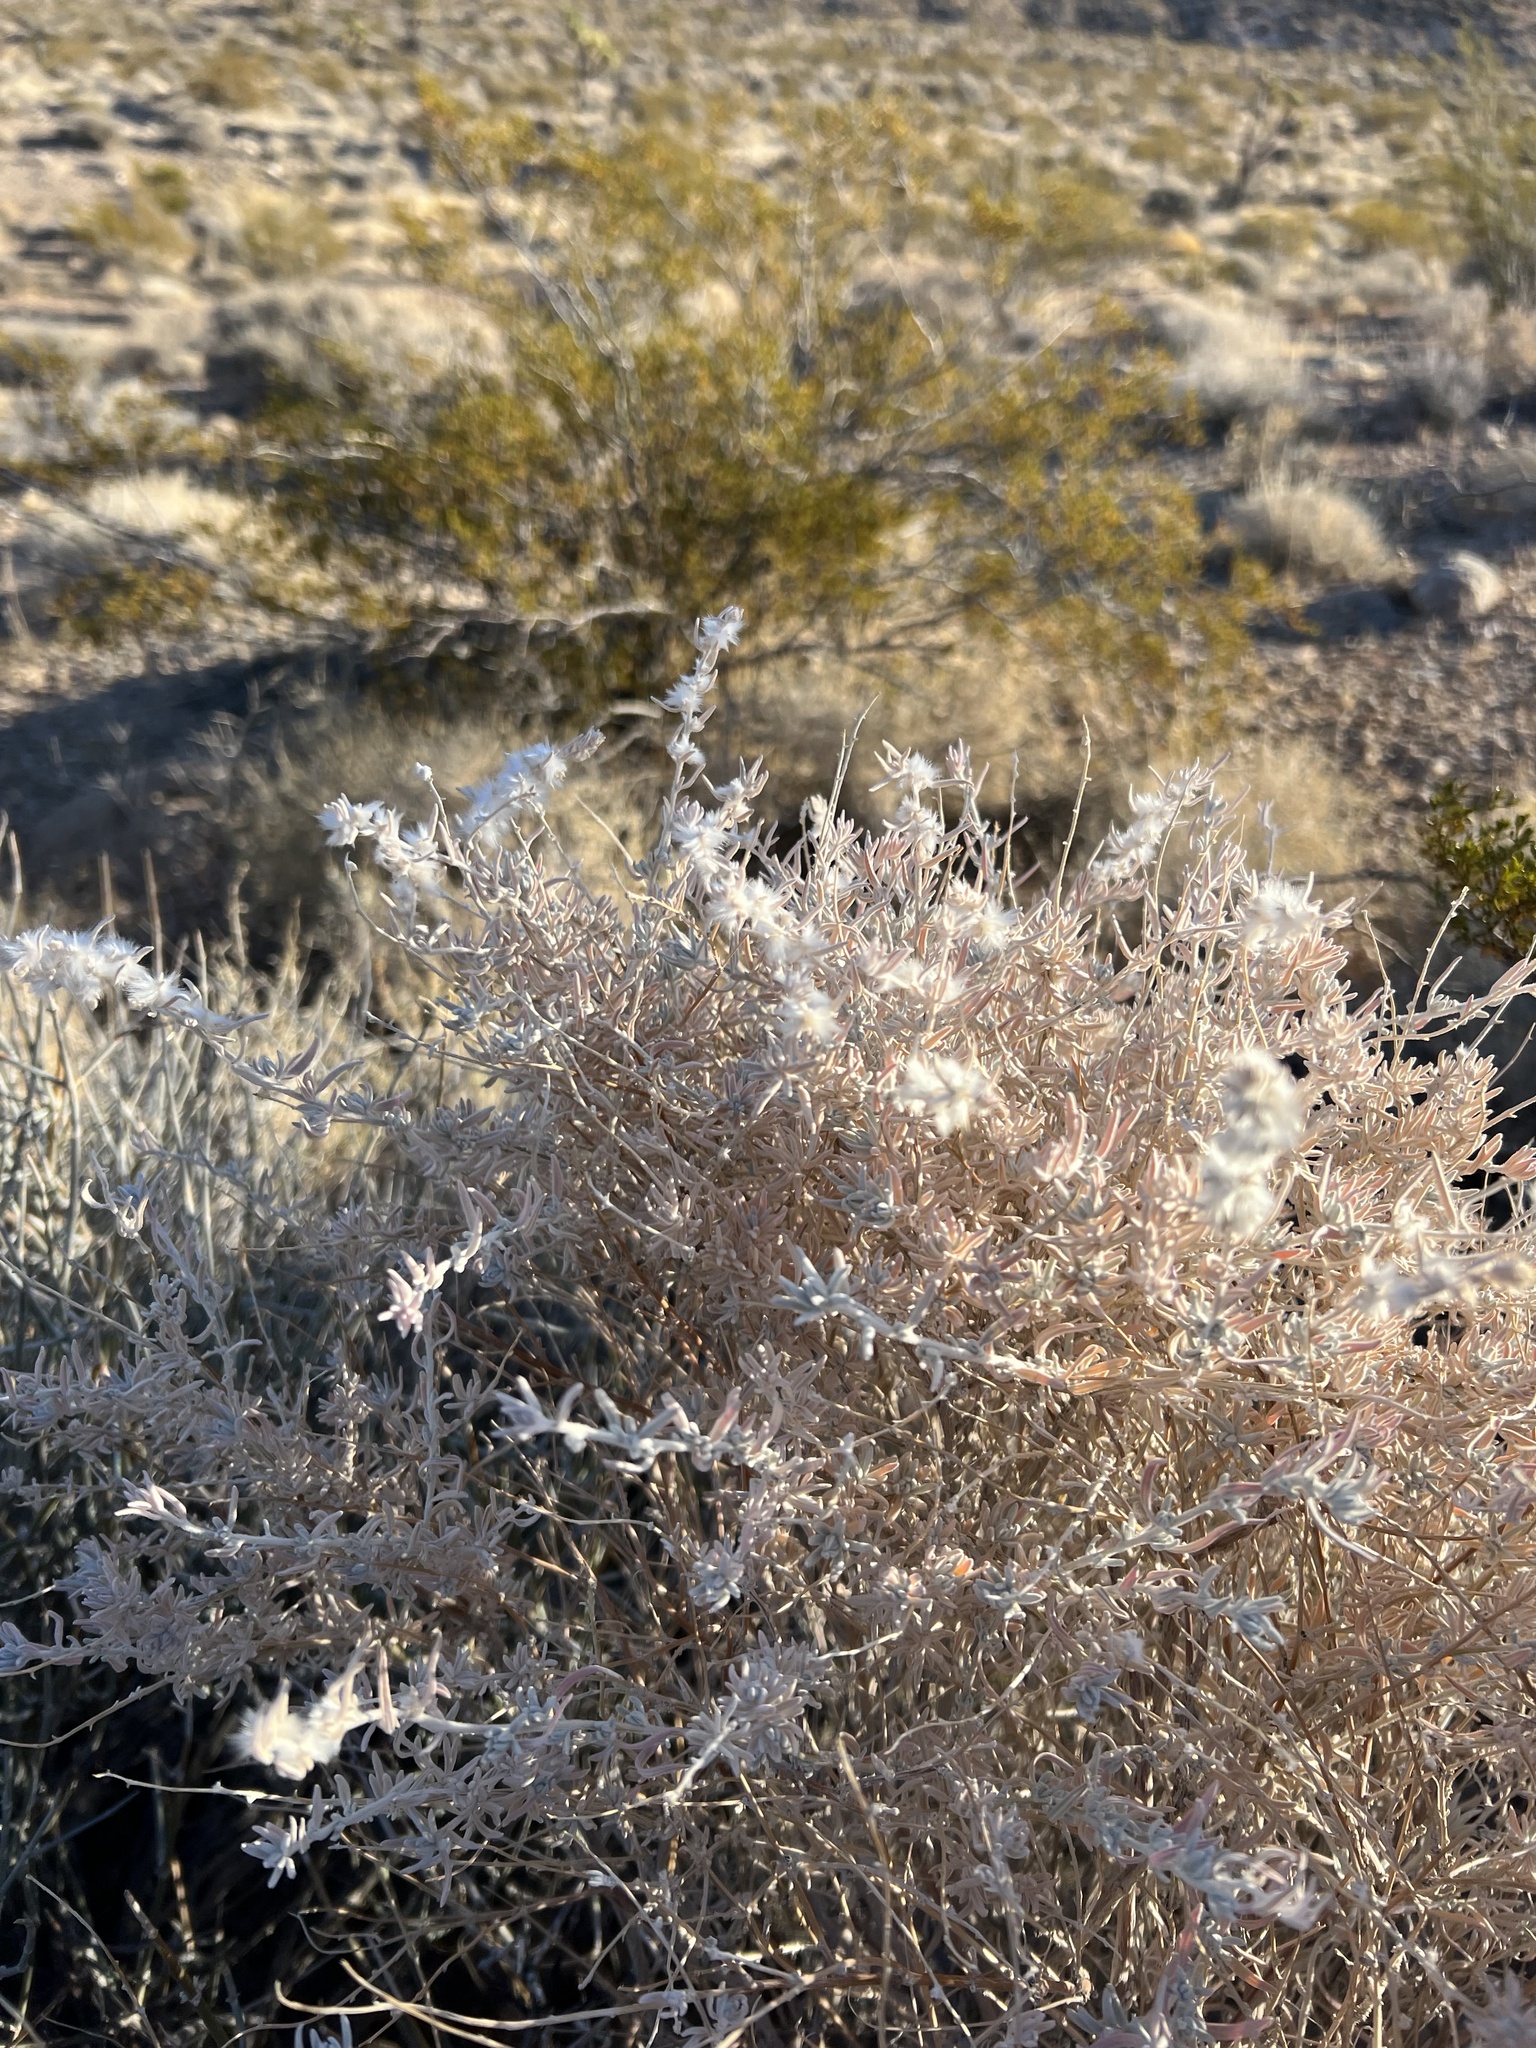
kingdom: Plantae
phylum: Tracheophyta
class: Magnoliopsida
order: Caryophyllales
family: Amaranthaceae
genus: Krascheninnikovia
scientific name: Krascheninnikovia lanata
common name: Winterfat
